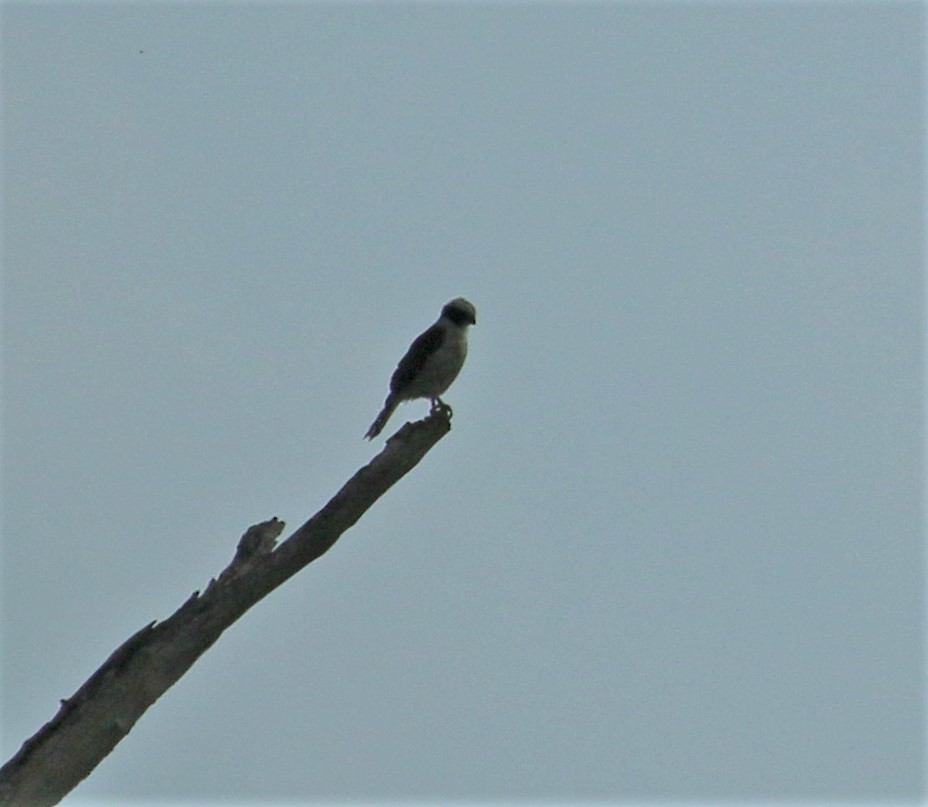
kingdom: Animalia
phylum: Chordata
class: Aves
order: Falconiformes
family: Falconidae
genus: Herpetotheres
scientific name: Herpetotheres cachinnans
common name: Laughing falcon
